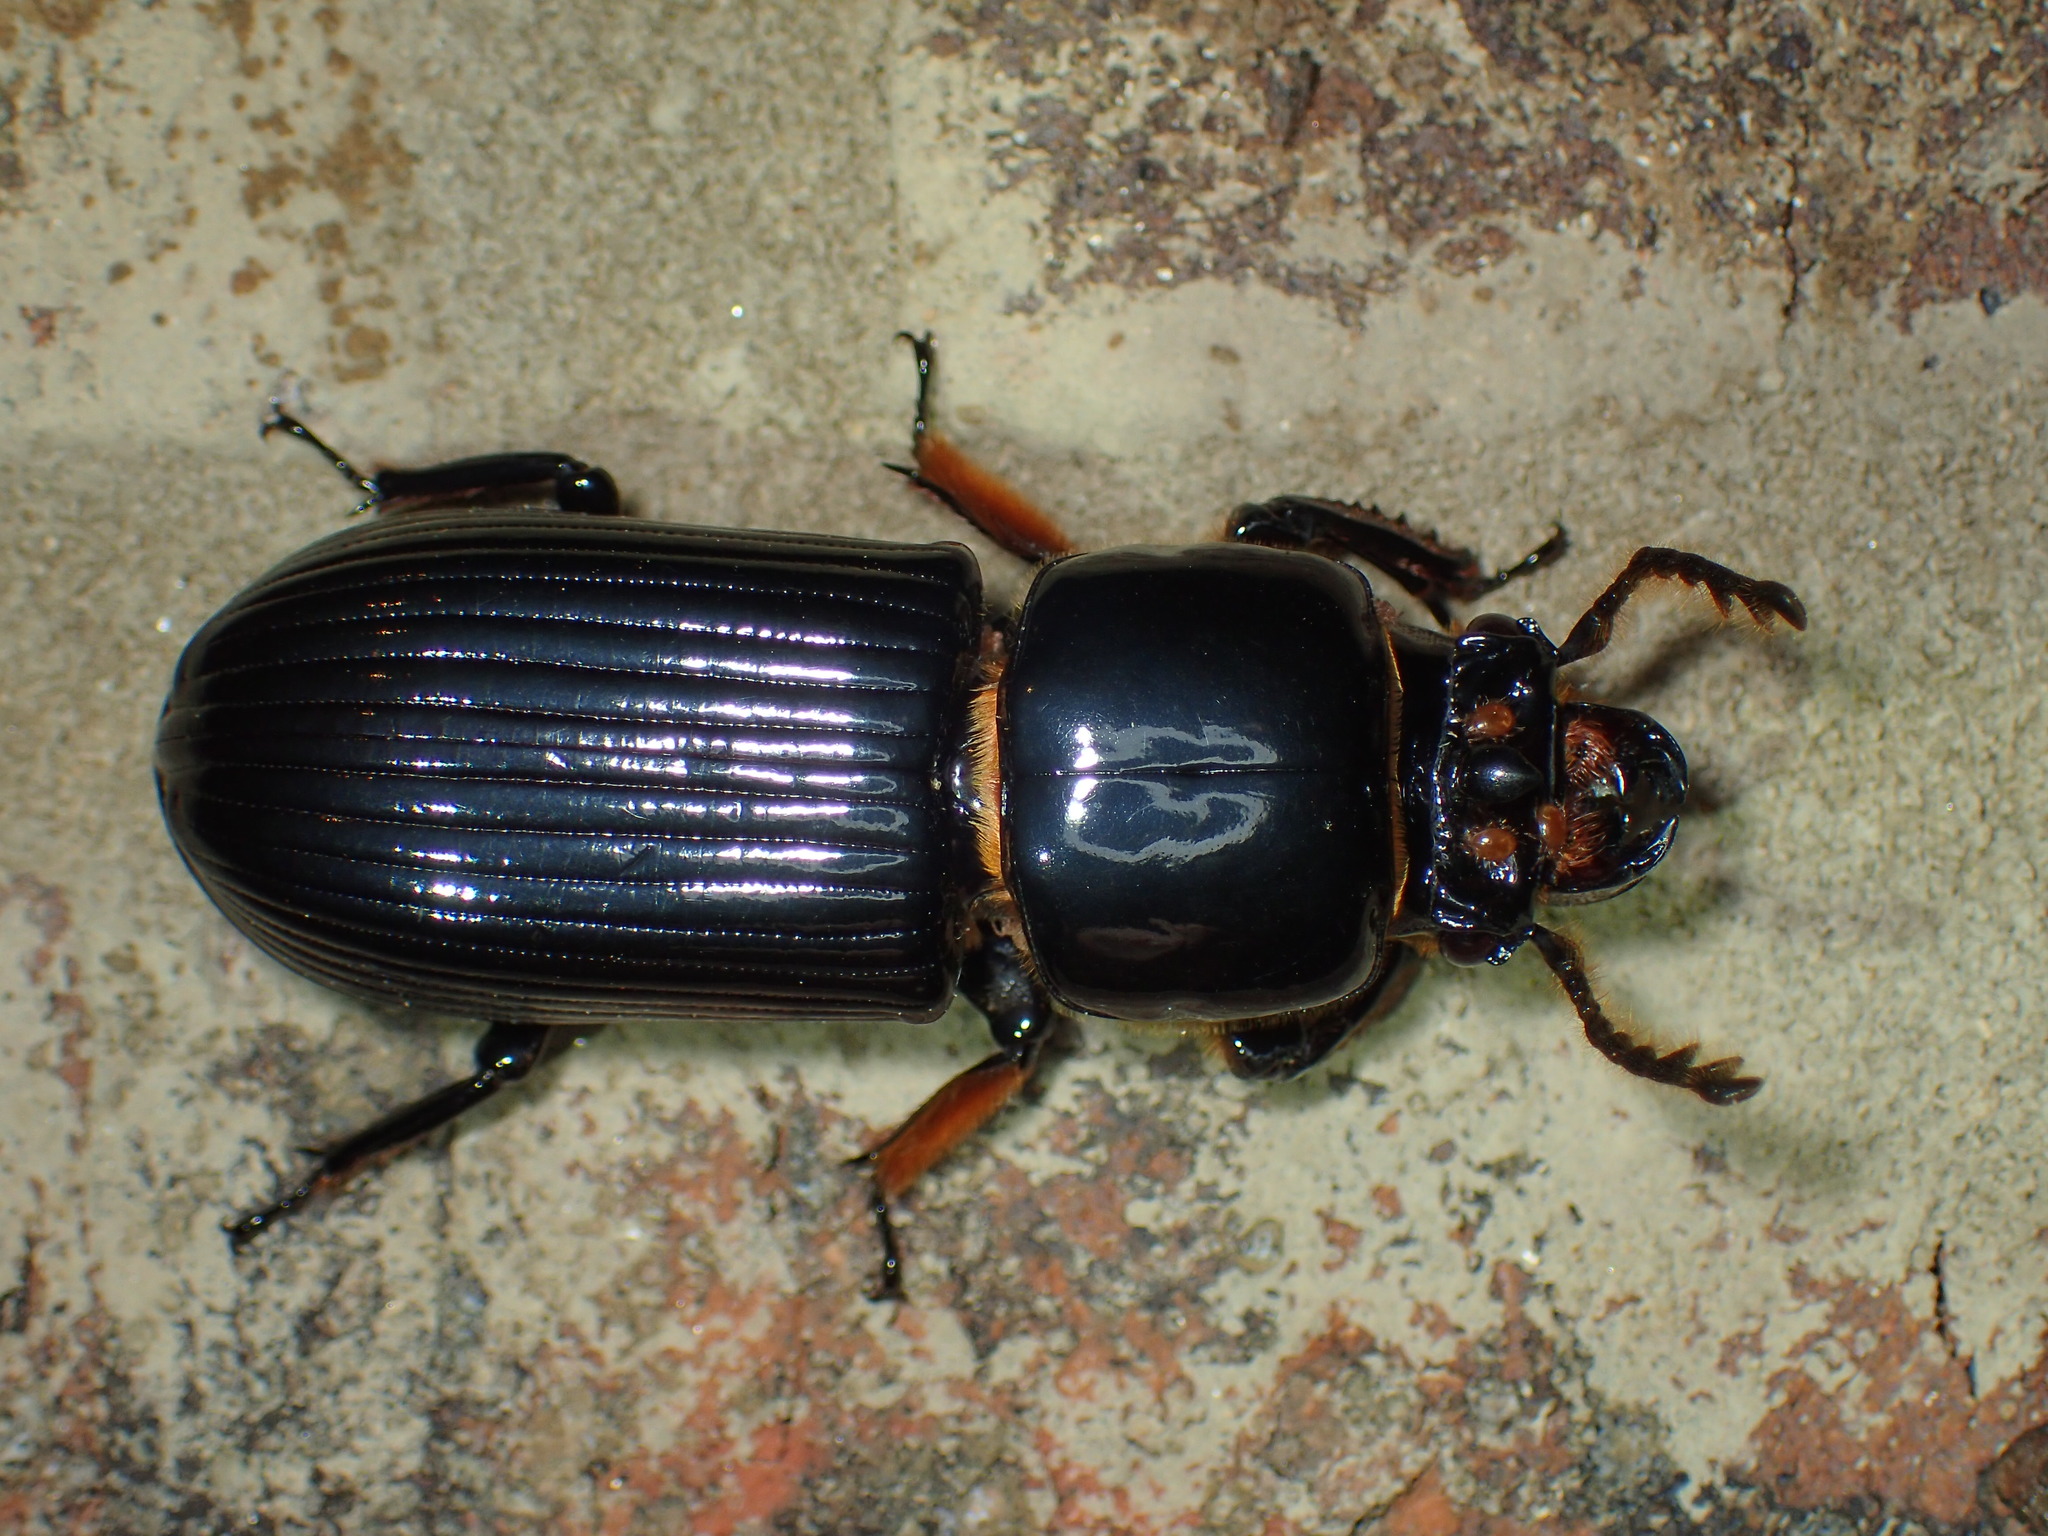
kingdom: Animalia
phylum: Arthropoda
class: Insecta
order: Coleoptera
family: Passalidae
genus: Odontotaenius
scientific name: Odontotaenius disjunctus
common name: Patent leather beetle
